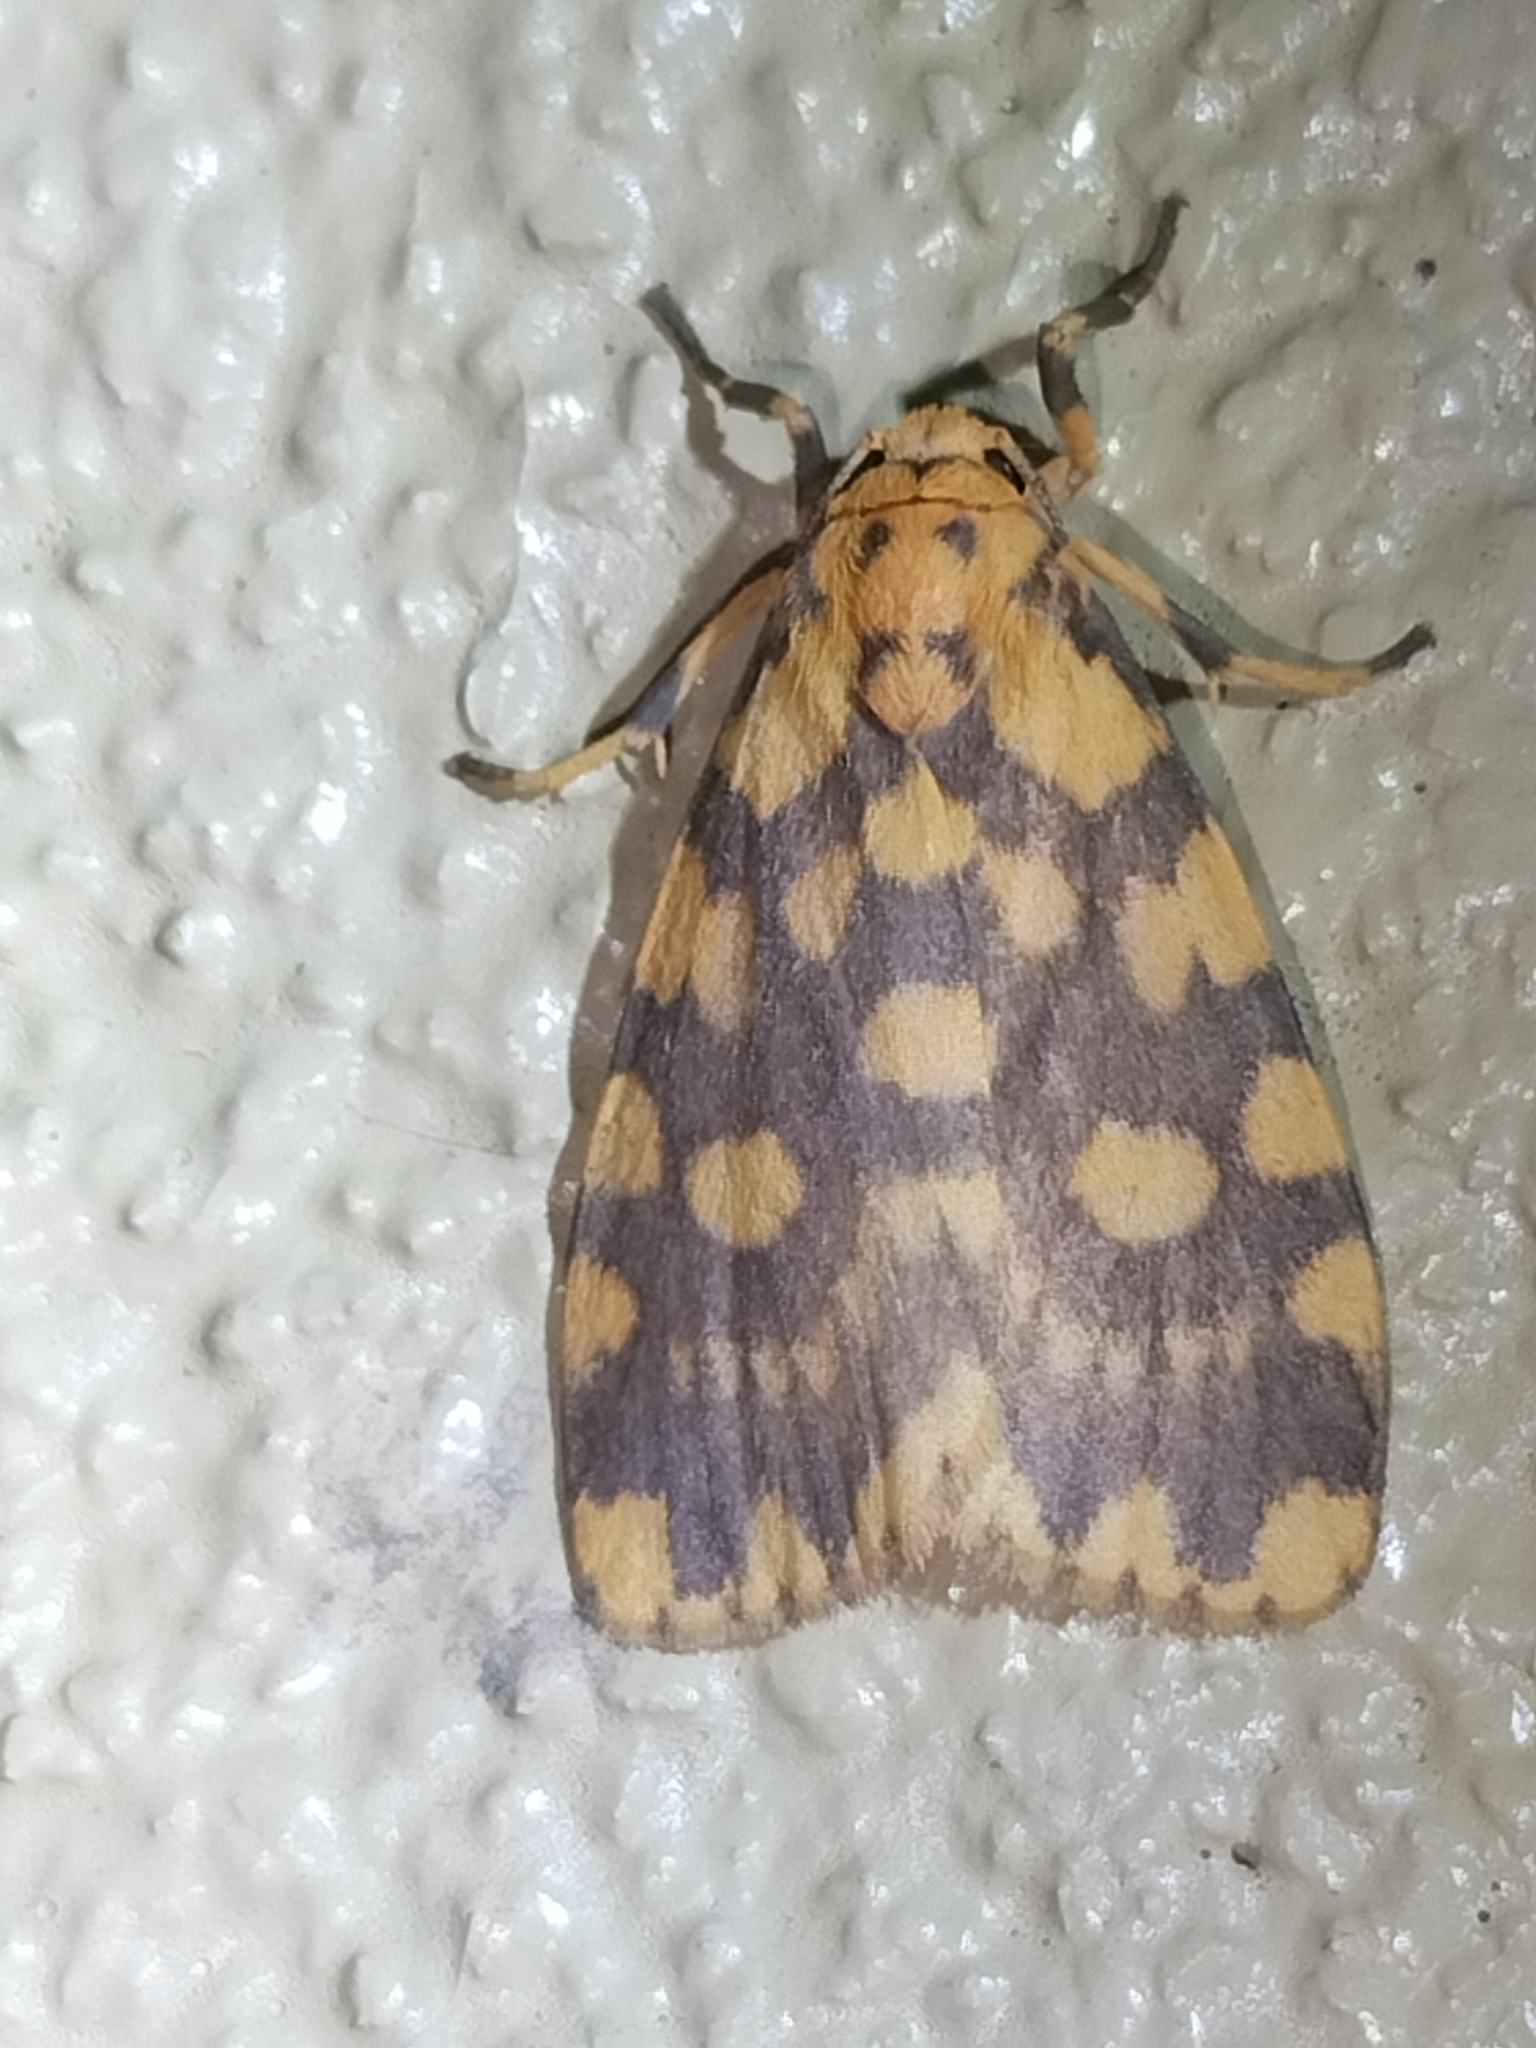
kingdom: Animalia
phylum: Arthropoda
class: Insecta
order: Lepidoptera
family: Erebidae
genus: Cyme
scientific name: Cyme quadrilineata
